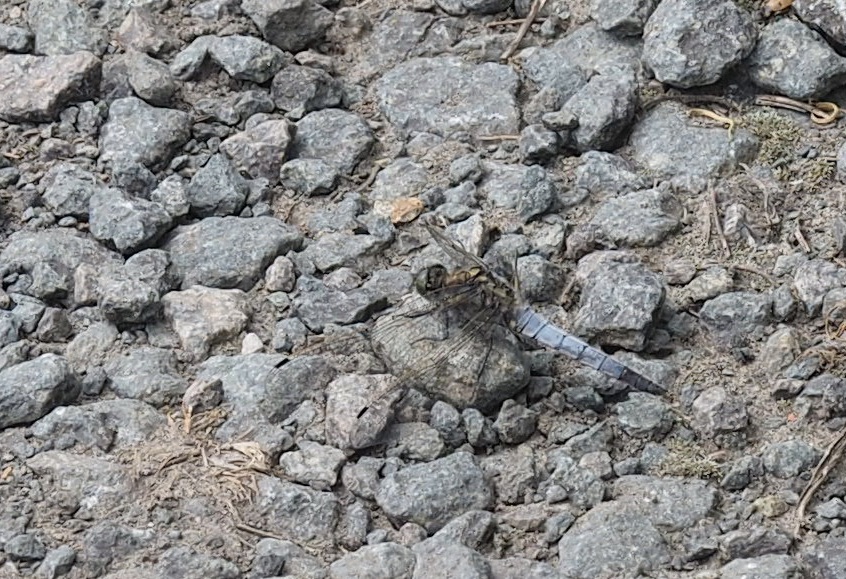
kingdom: Animalia
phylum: Arthropoda
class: Insecta
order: Odonata
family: Libellulidae
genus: Orthetrum
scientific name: Orthetrum cancellatum
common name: Black-tailed skimmer
